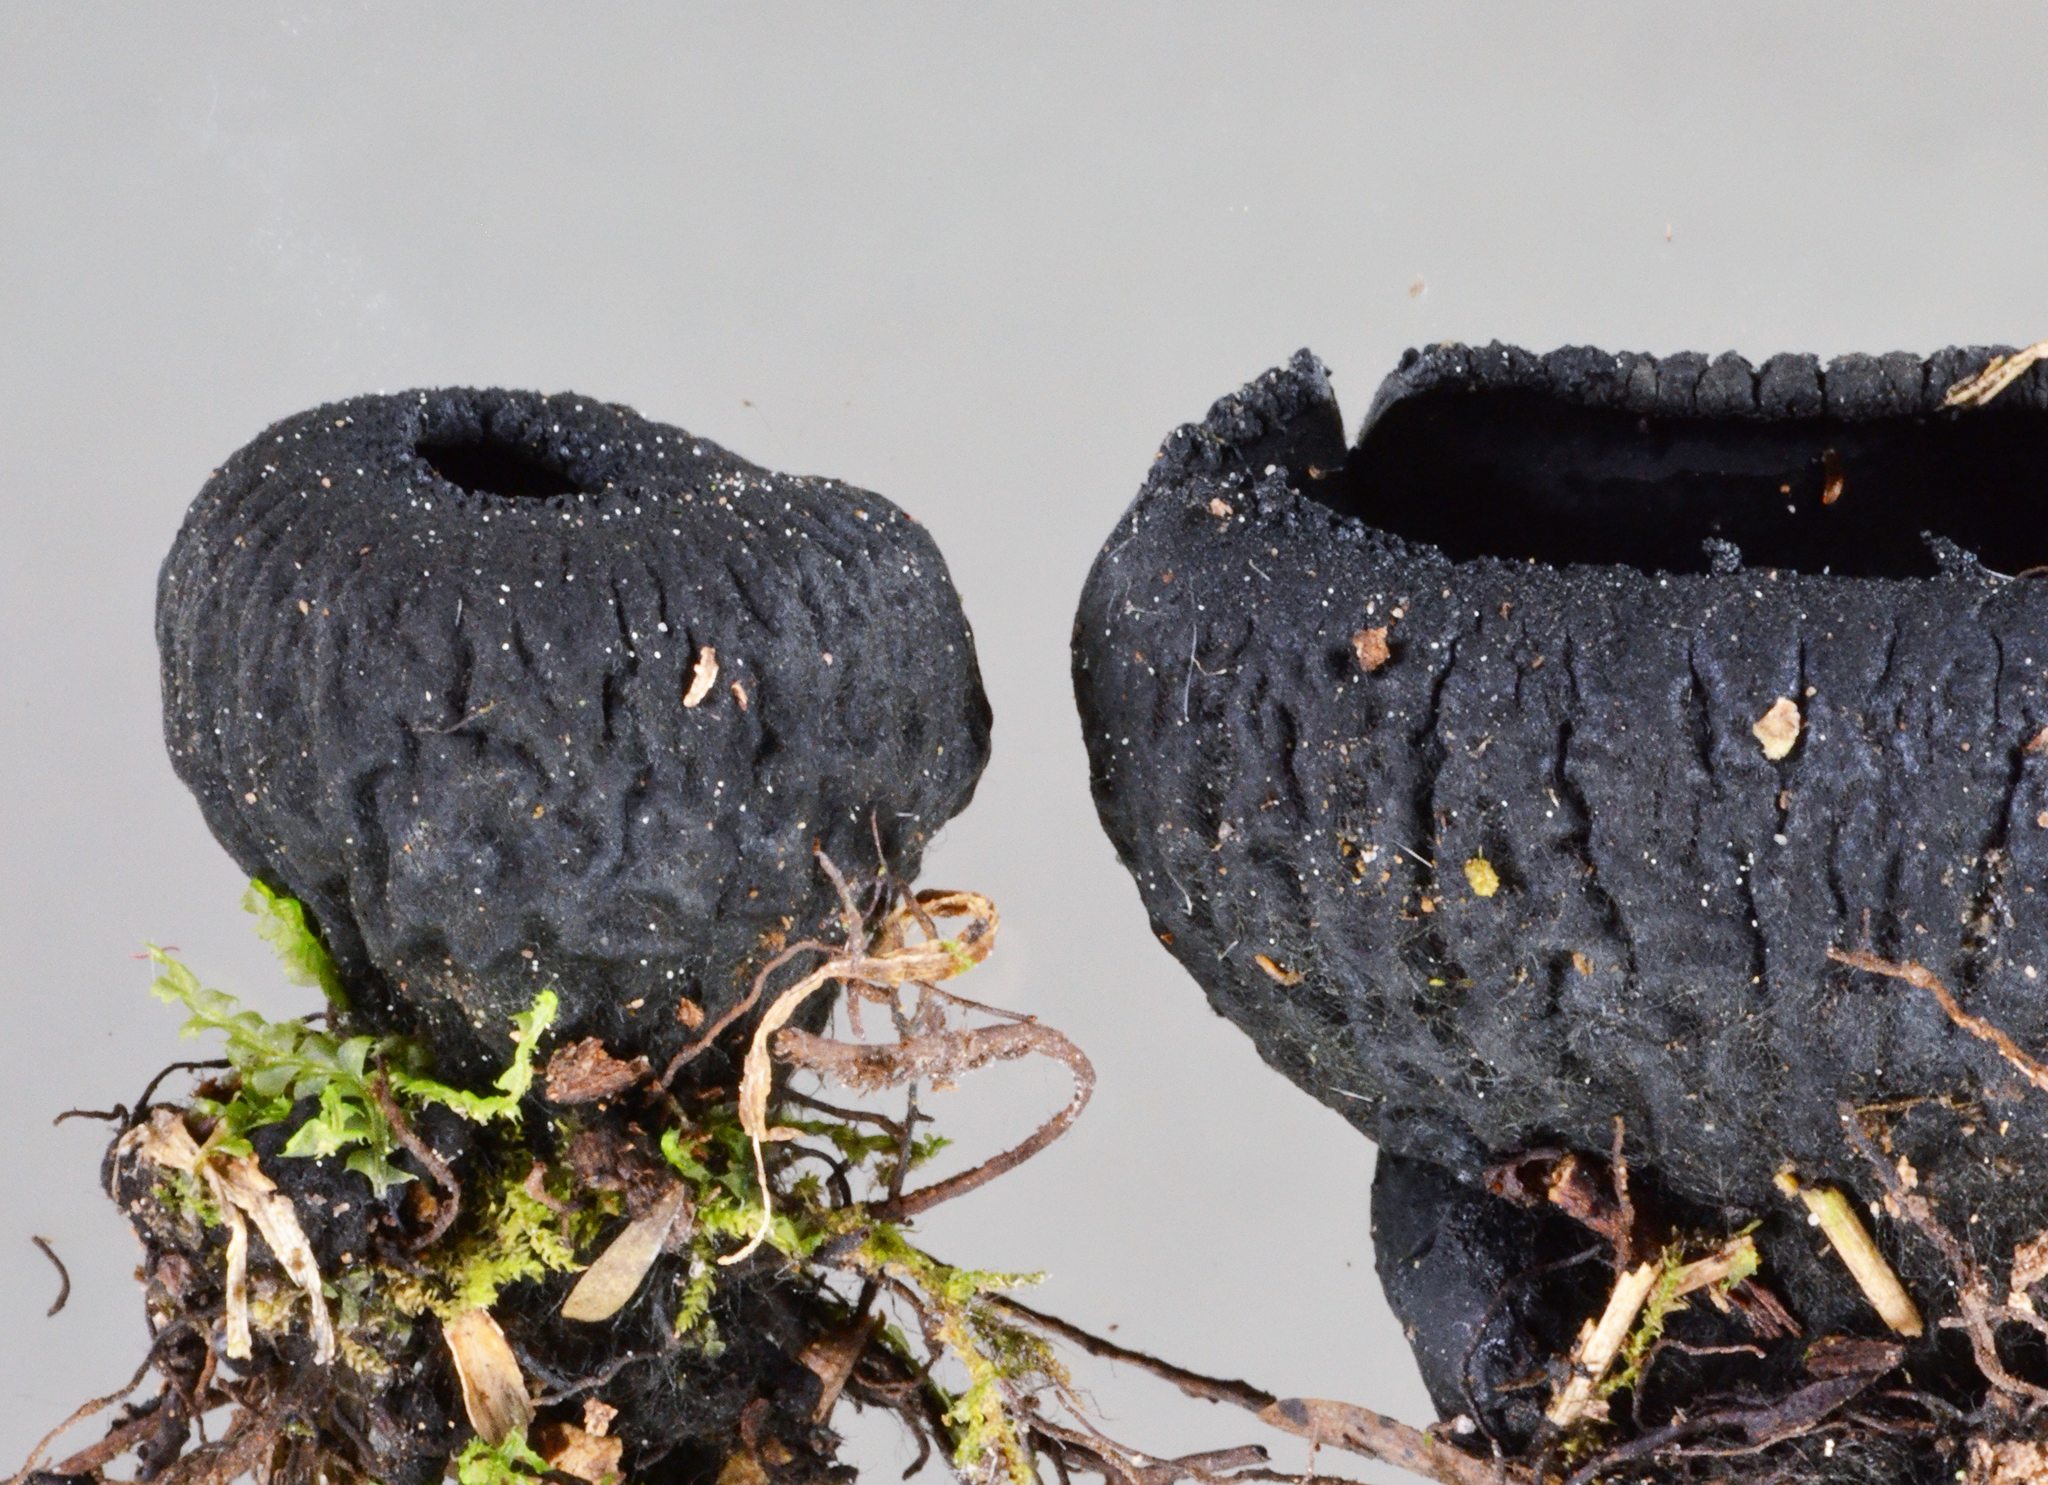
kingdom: Fungi
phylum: Ascomycota
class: Pezizomycetes
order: Pezizales
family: Sarcosomataceae
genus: Plectania
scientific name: Plectania rhytidia
